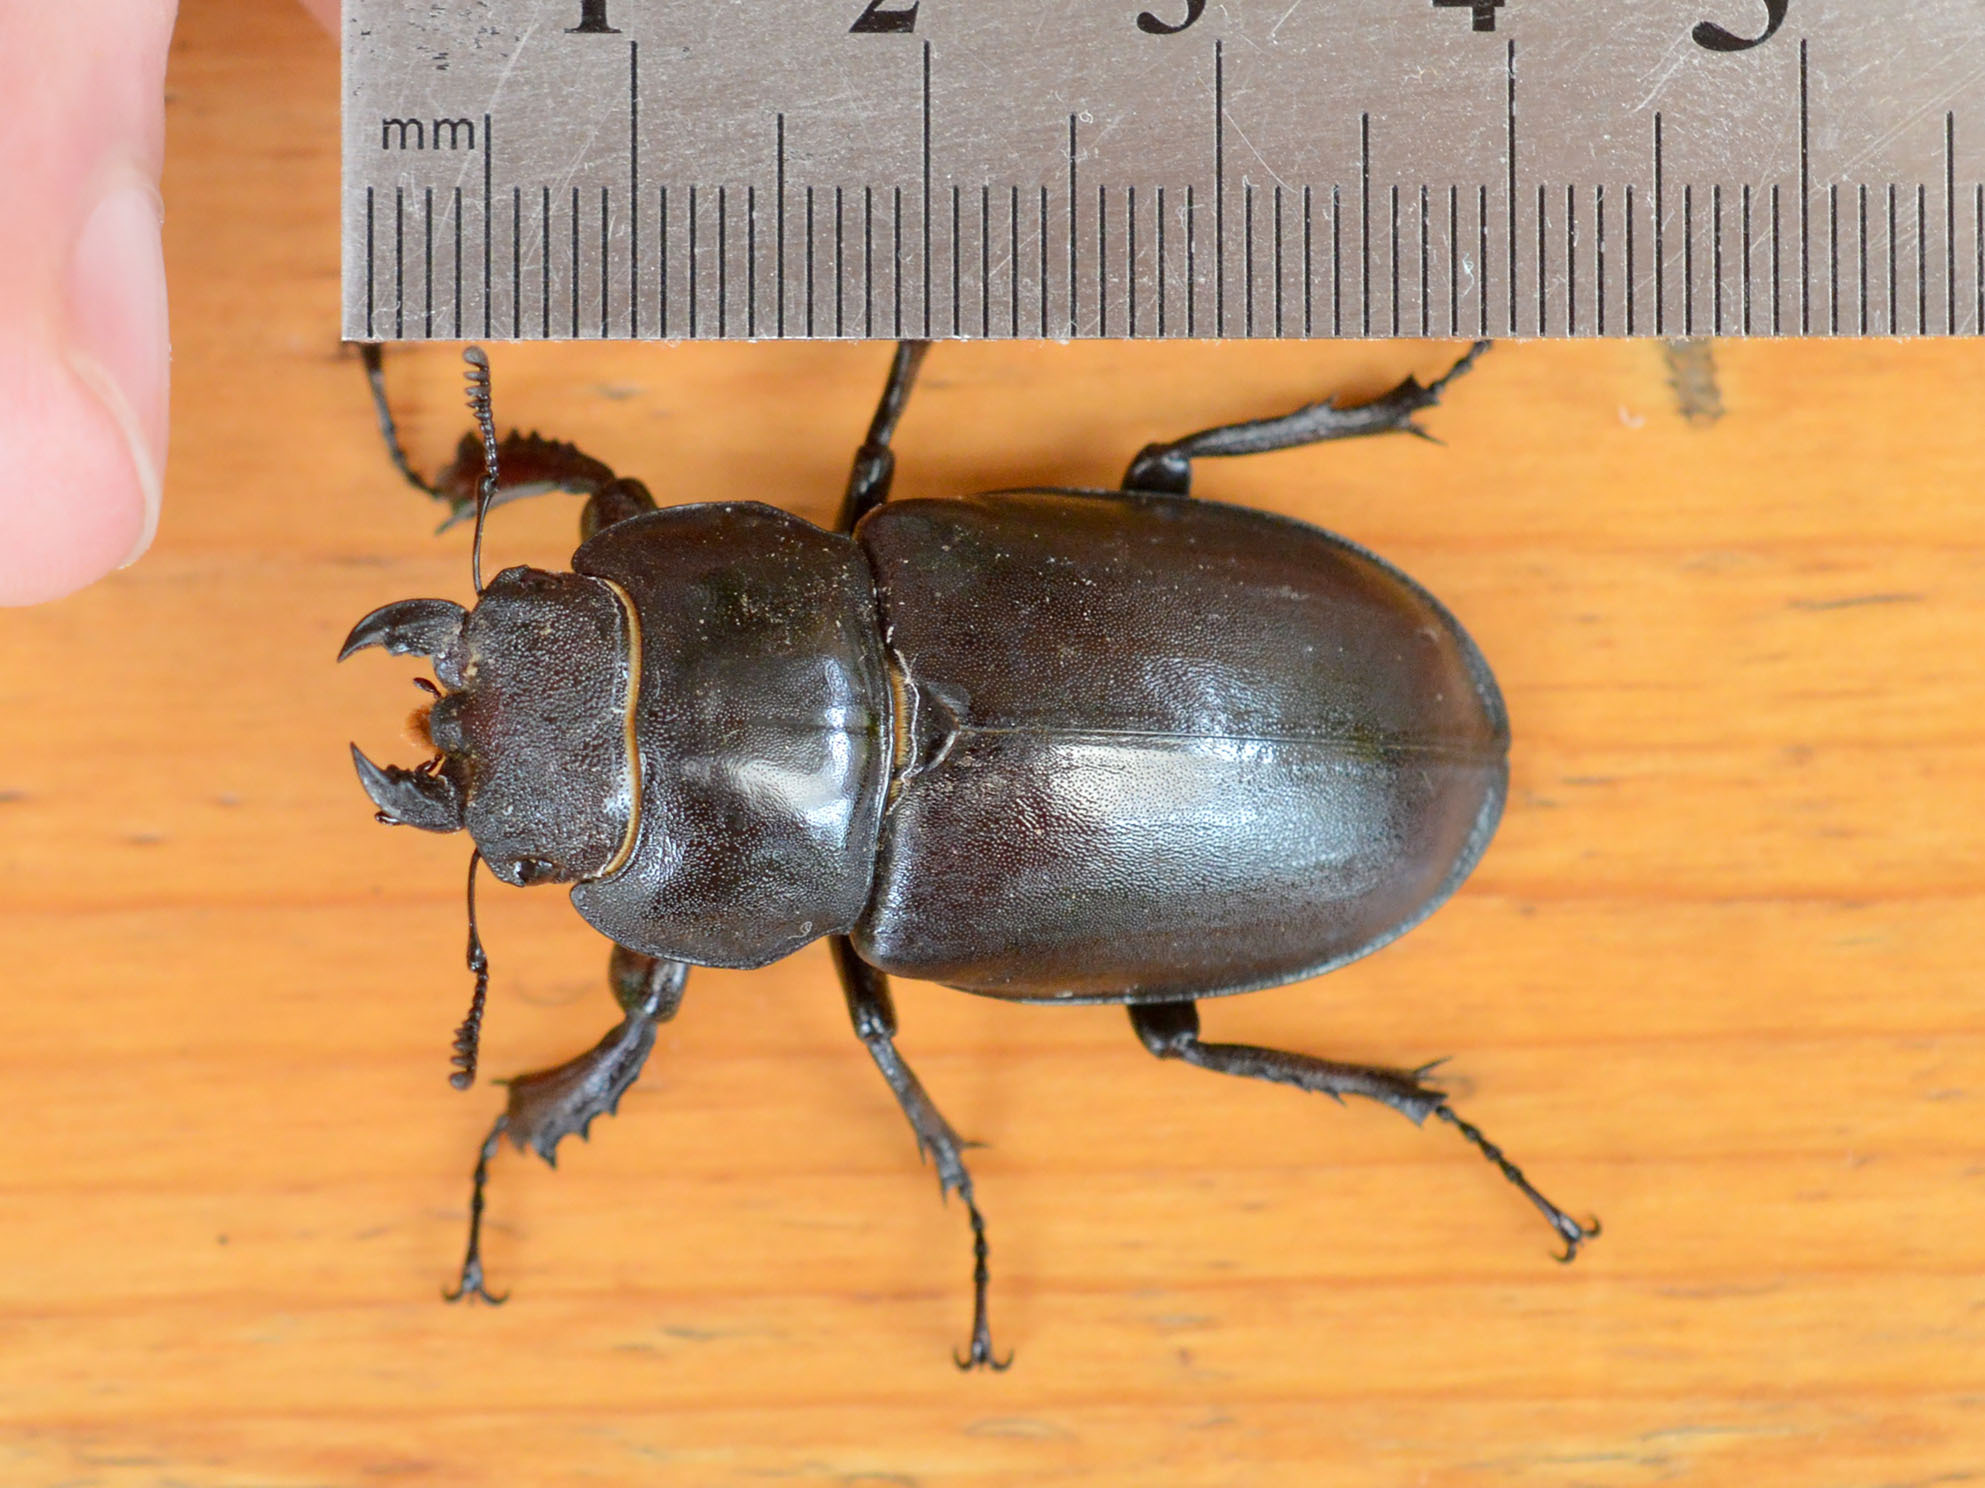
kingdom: Animalia
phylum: Arthropoda
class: Insecta
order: Coleoptera
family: Lucanidae
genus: Lucanus
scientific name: Lucanus cervus
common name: Stag beetle
